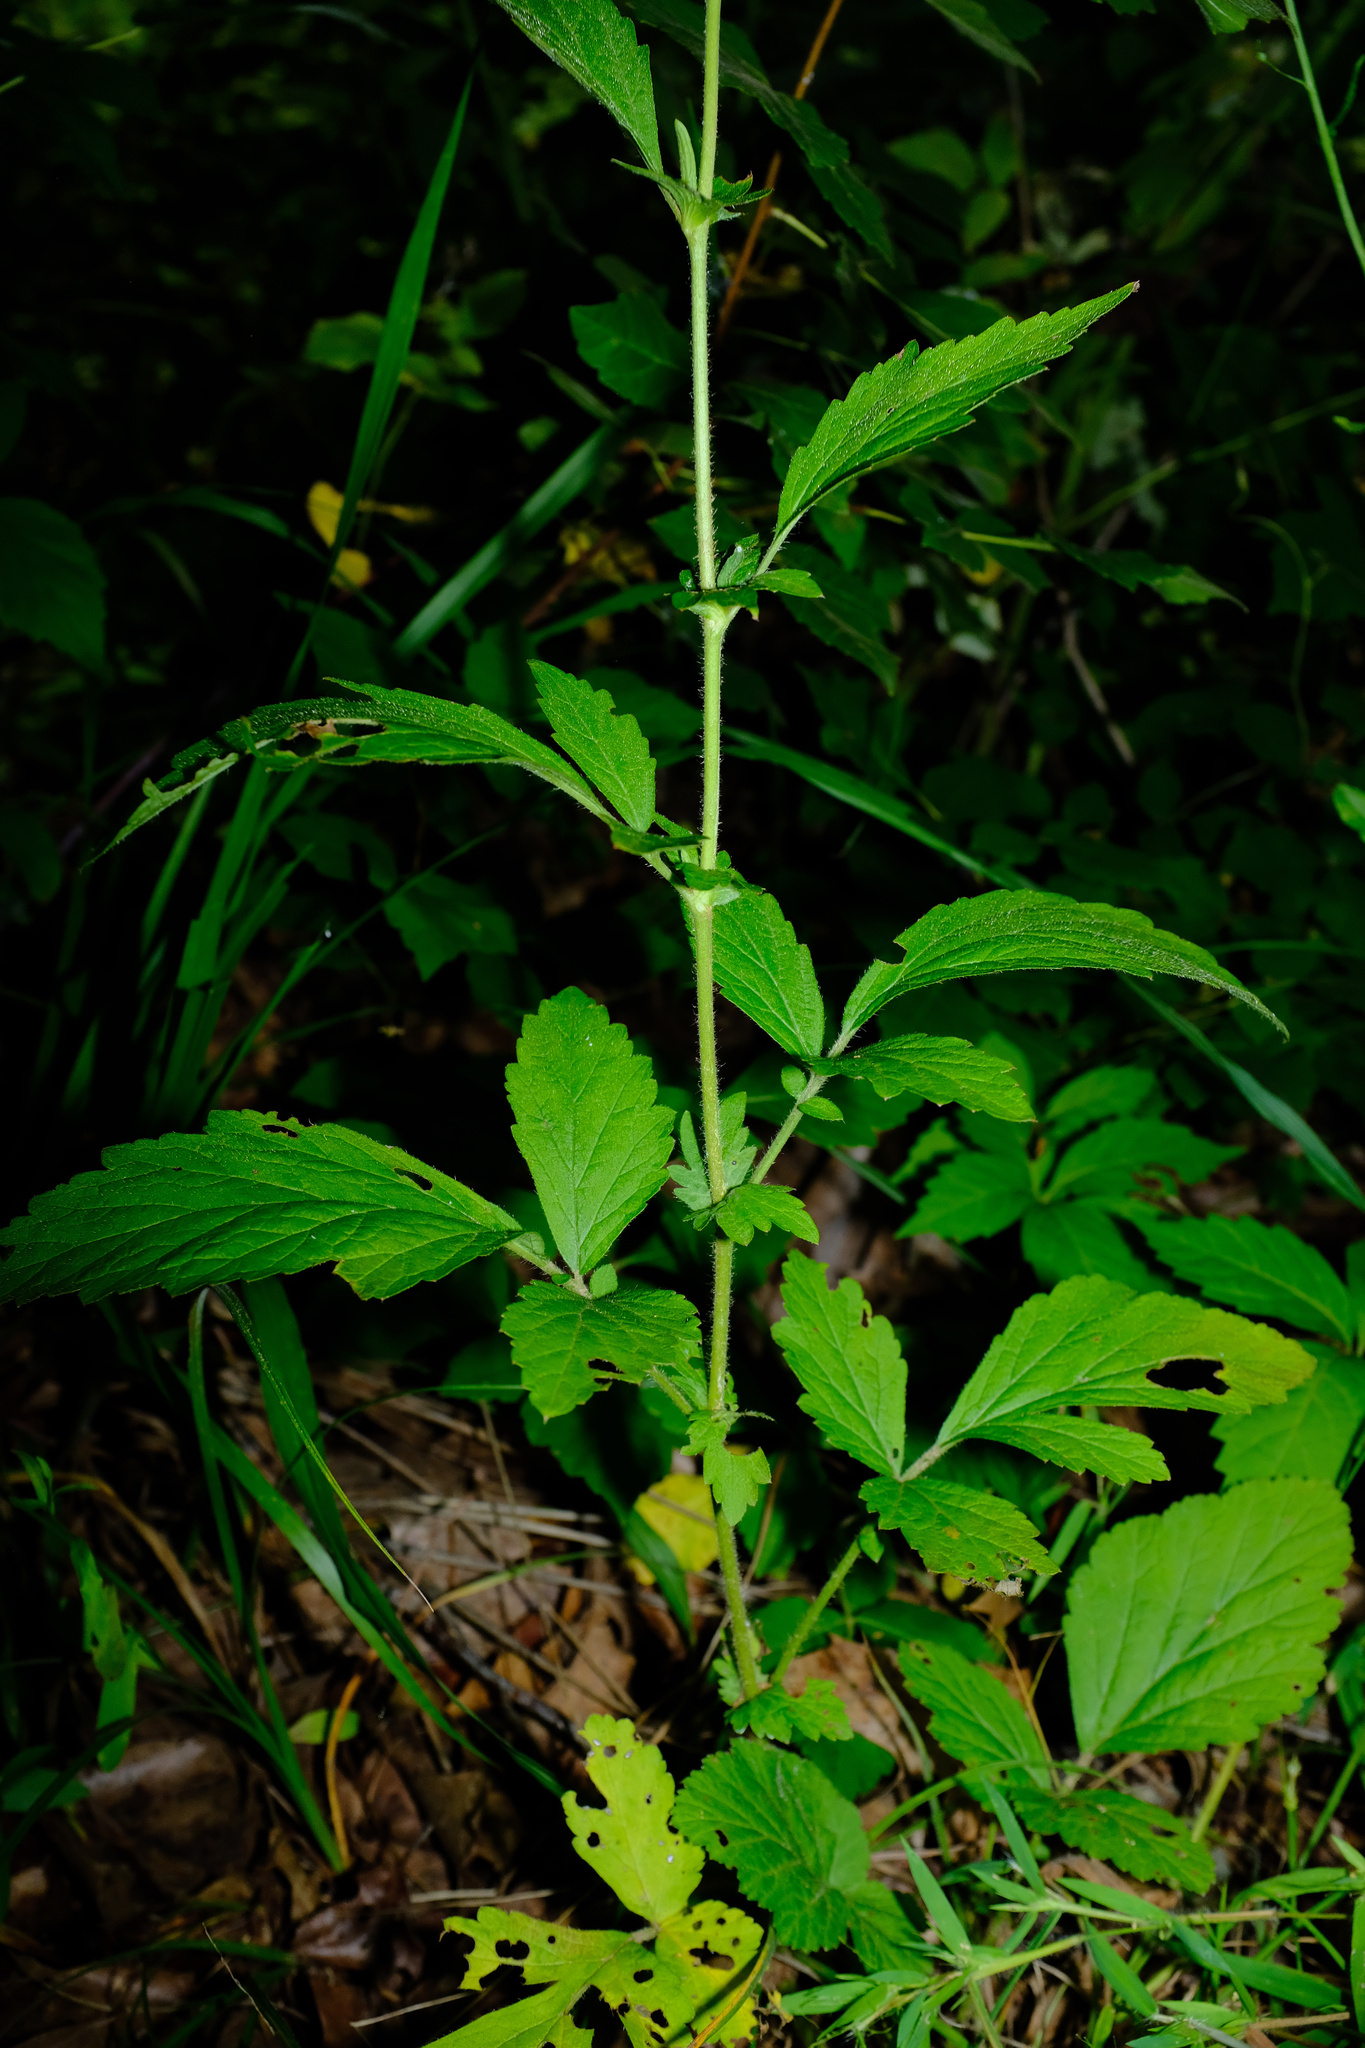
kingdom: Plantae
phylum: Tracheophyta
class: Magnoliopsida
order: Rosales
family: Rosaceae
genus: Geum
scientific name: Geum virginianum
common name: Cream avens
